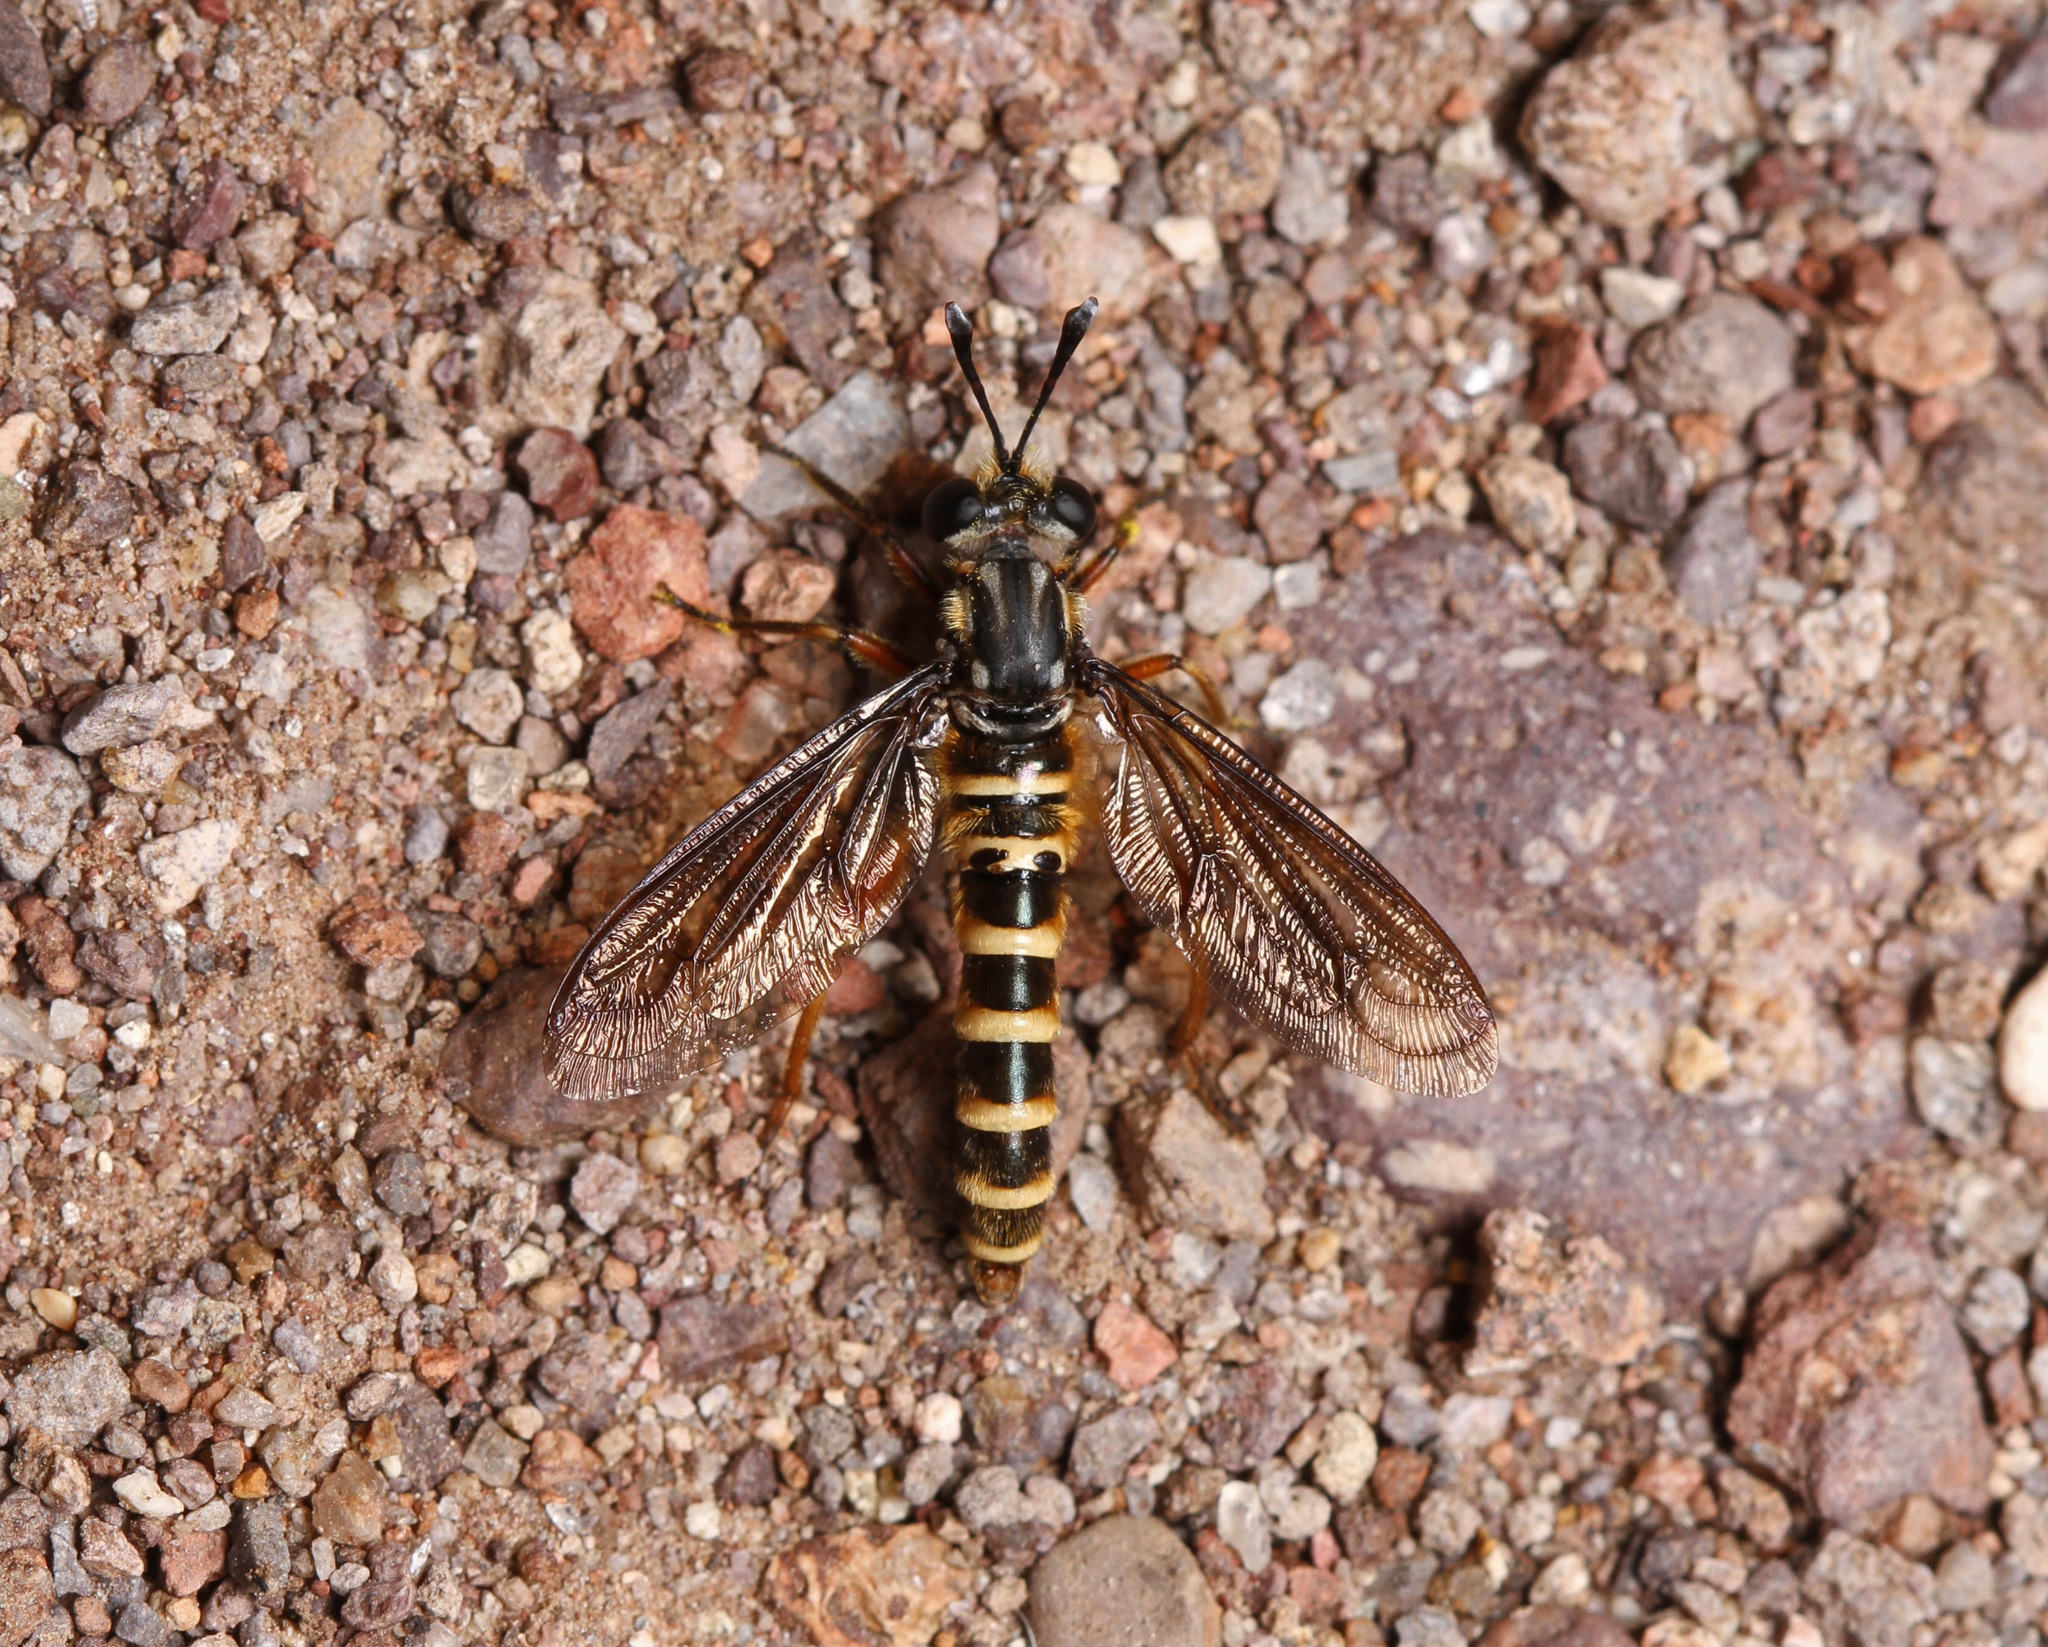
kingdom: Animalia
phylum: Arthropoda
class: Insecta
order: Diptera
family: Mydidae
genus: Nemomydas
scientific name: Nemomydas venosus
